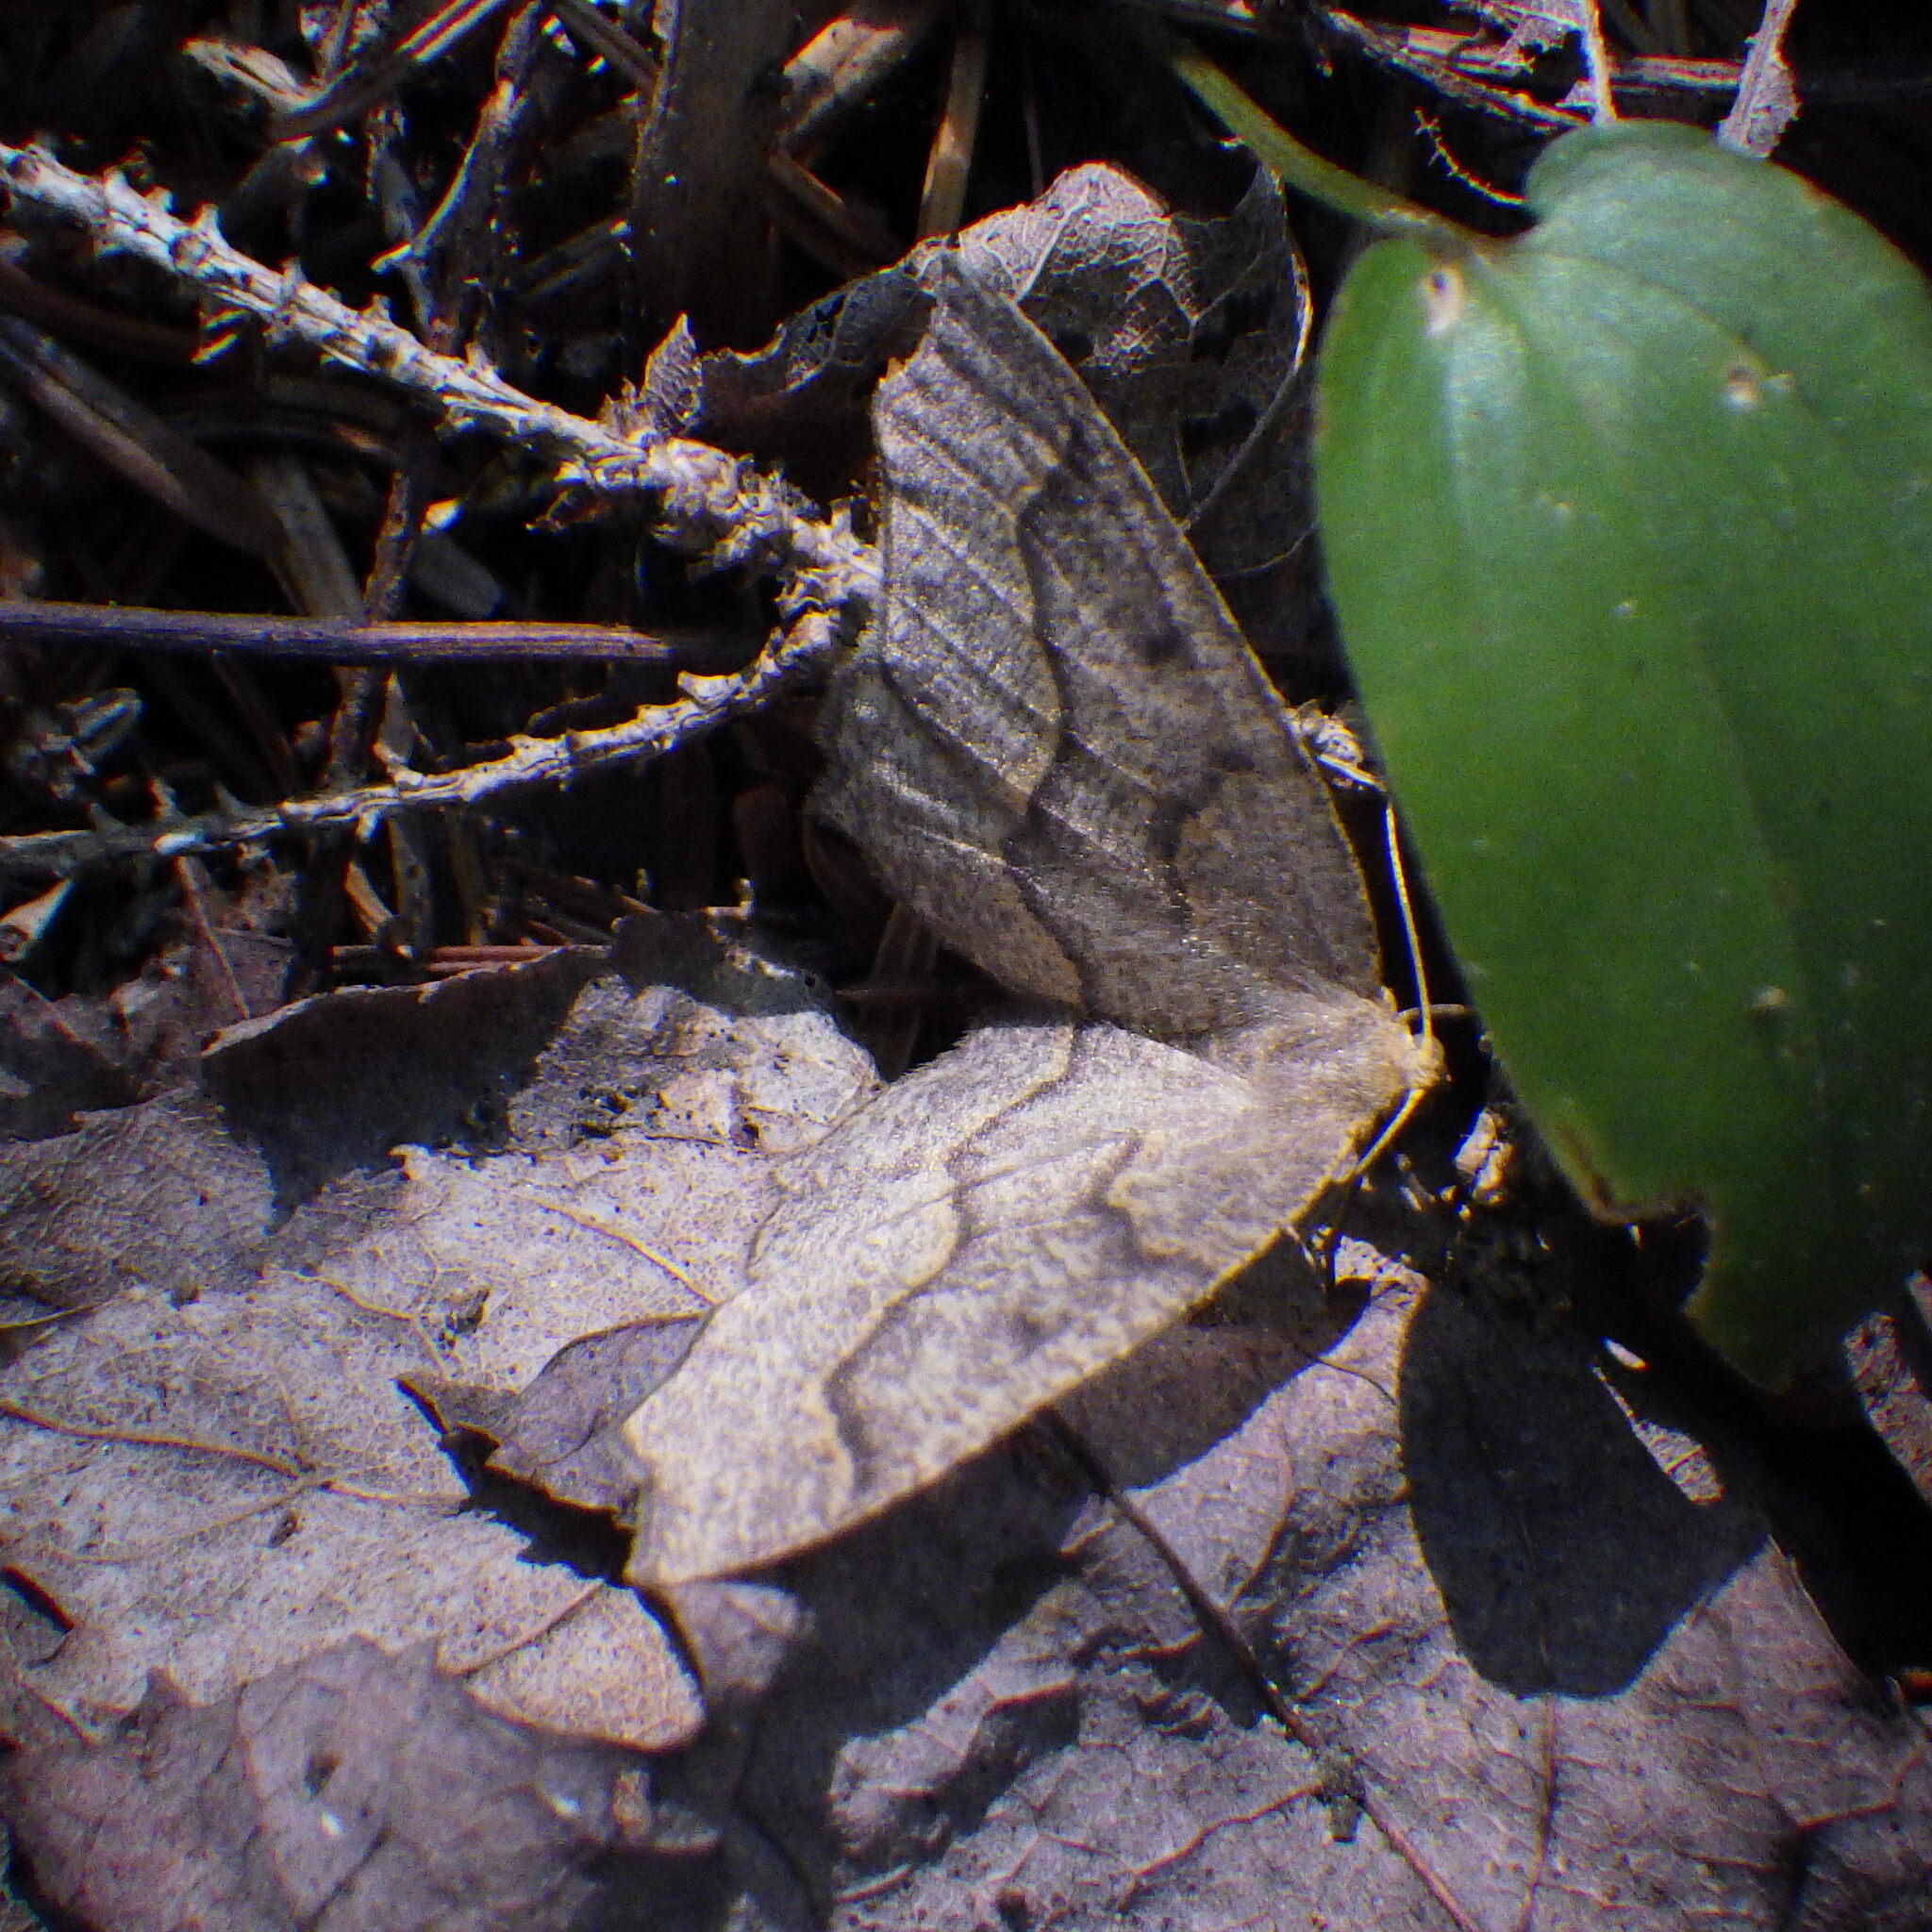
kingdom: Animalia
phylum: Arthropoda
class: Insecta
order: Lepidoptera
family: Geometridae
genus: Lambdina
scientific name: Lambdina fiscellaria
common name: Hemlock looper
